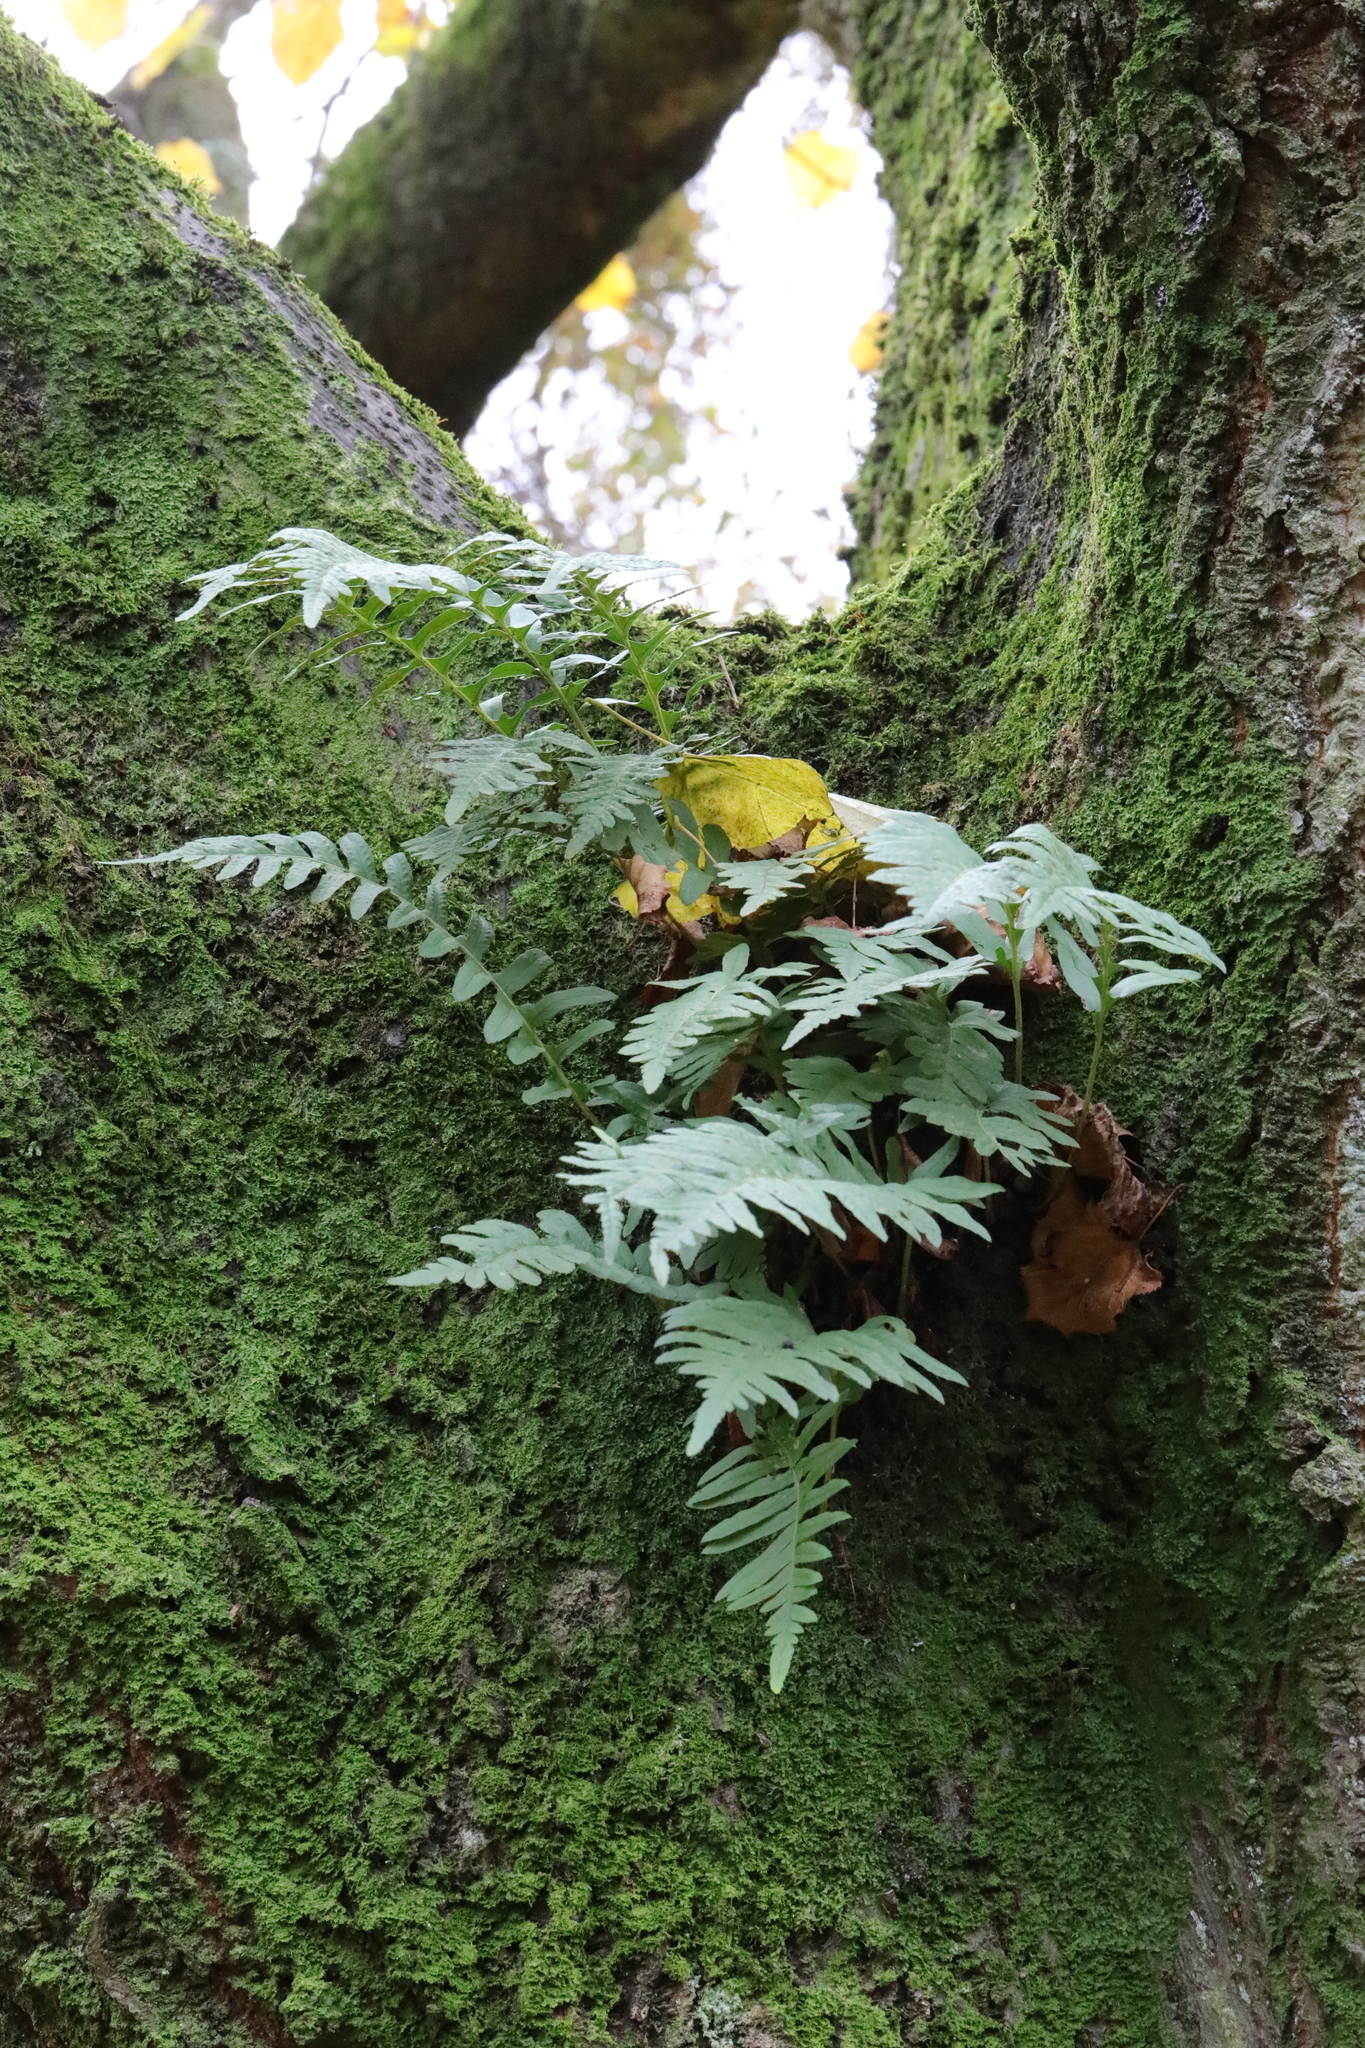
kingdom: Plantae
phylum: Tracheophyta
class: Polypodiopsida
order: Polypodiales
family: Polypodiaceae
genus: Polypodium
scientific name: Polypodium vulgare
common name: Common polypody
